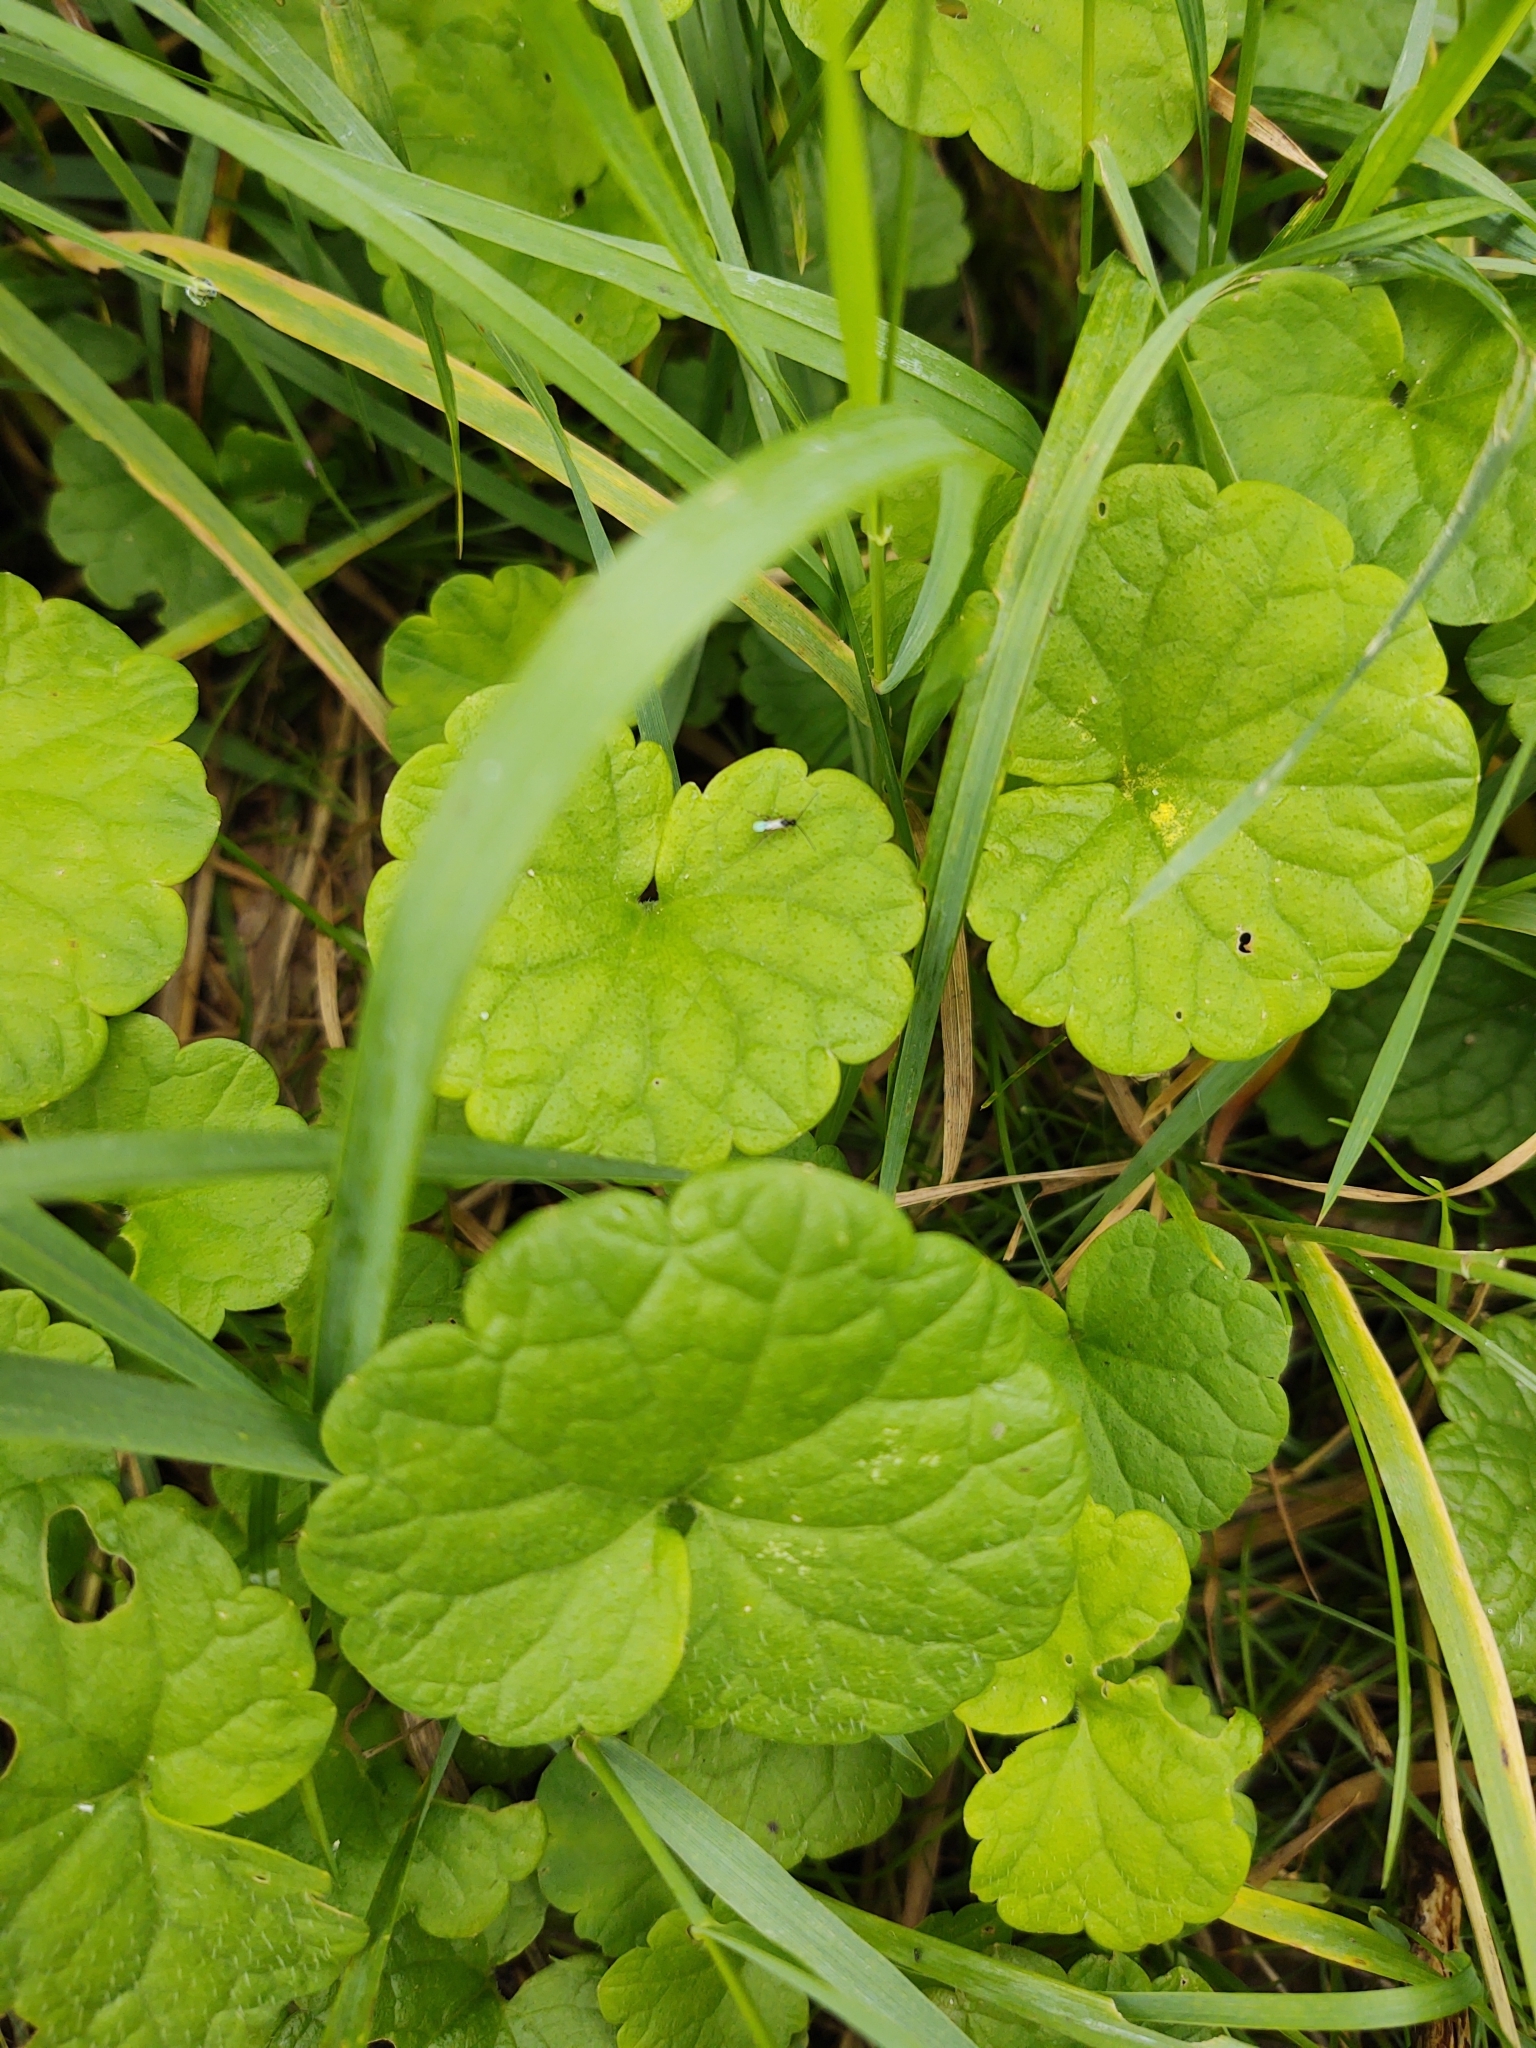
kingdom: Plantae
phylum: Tracheophyta
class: Magnoliopsida
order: Lamiales
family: Lamiaceae
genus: Glechoma
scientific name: Glechoma hederacea
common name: Ground ivy
